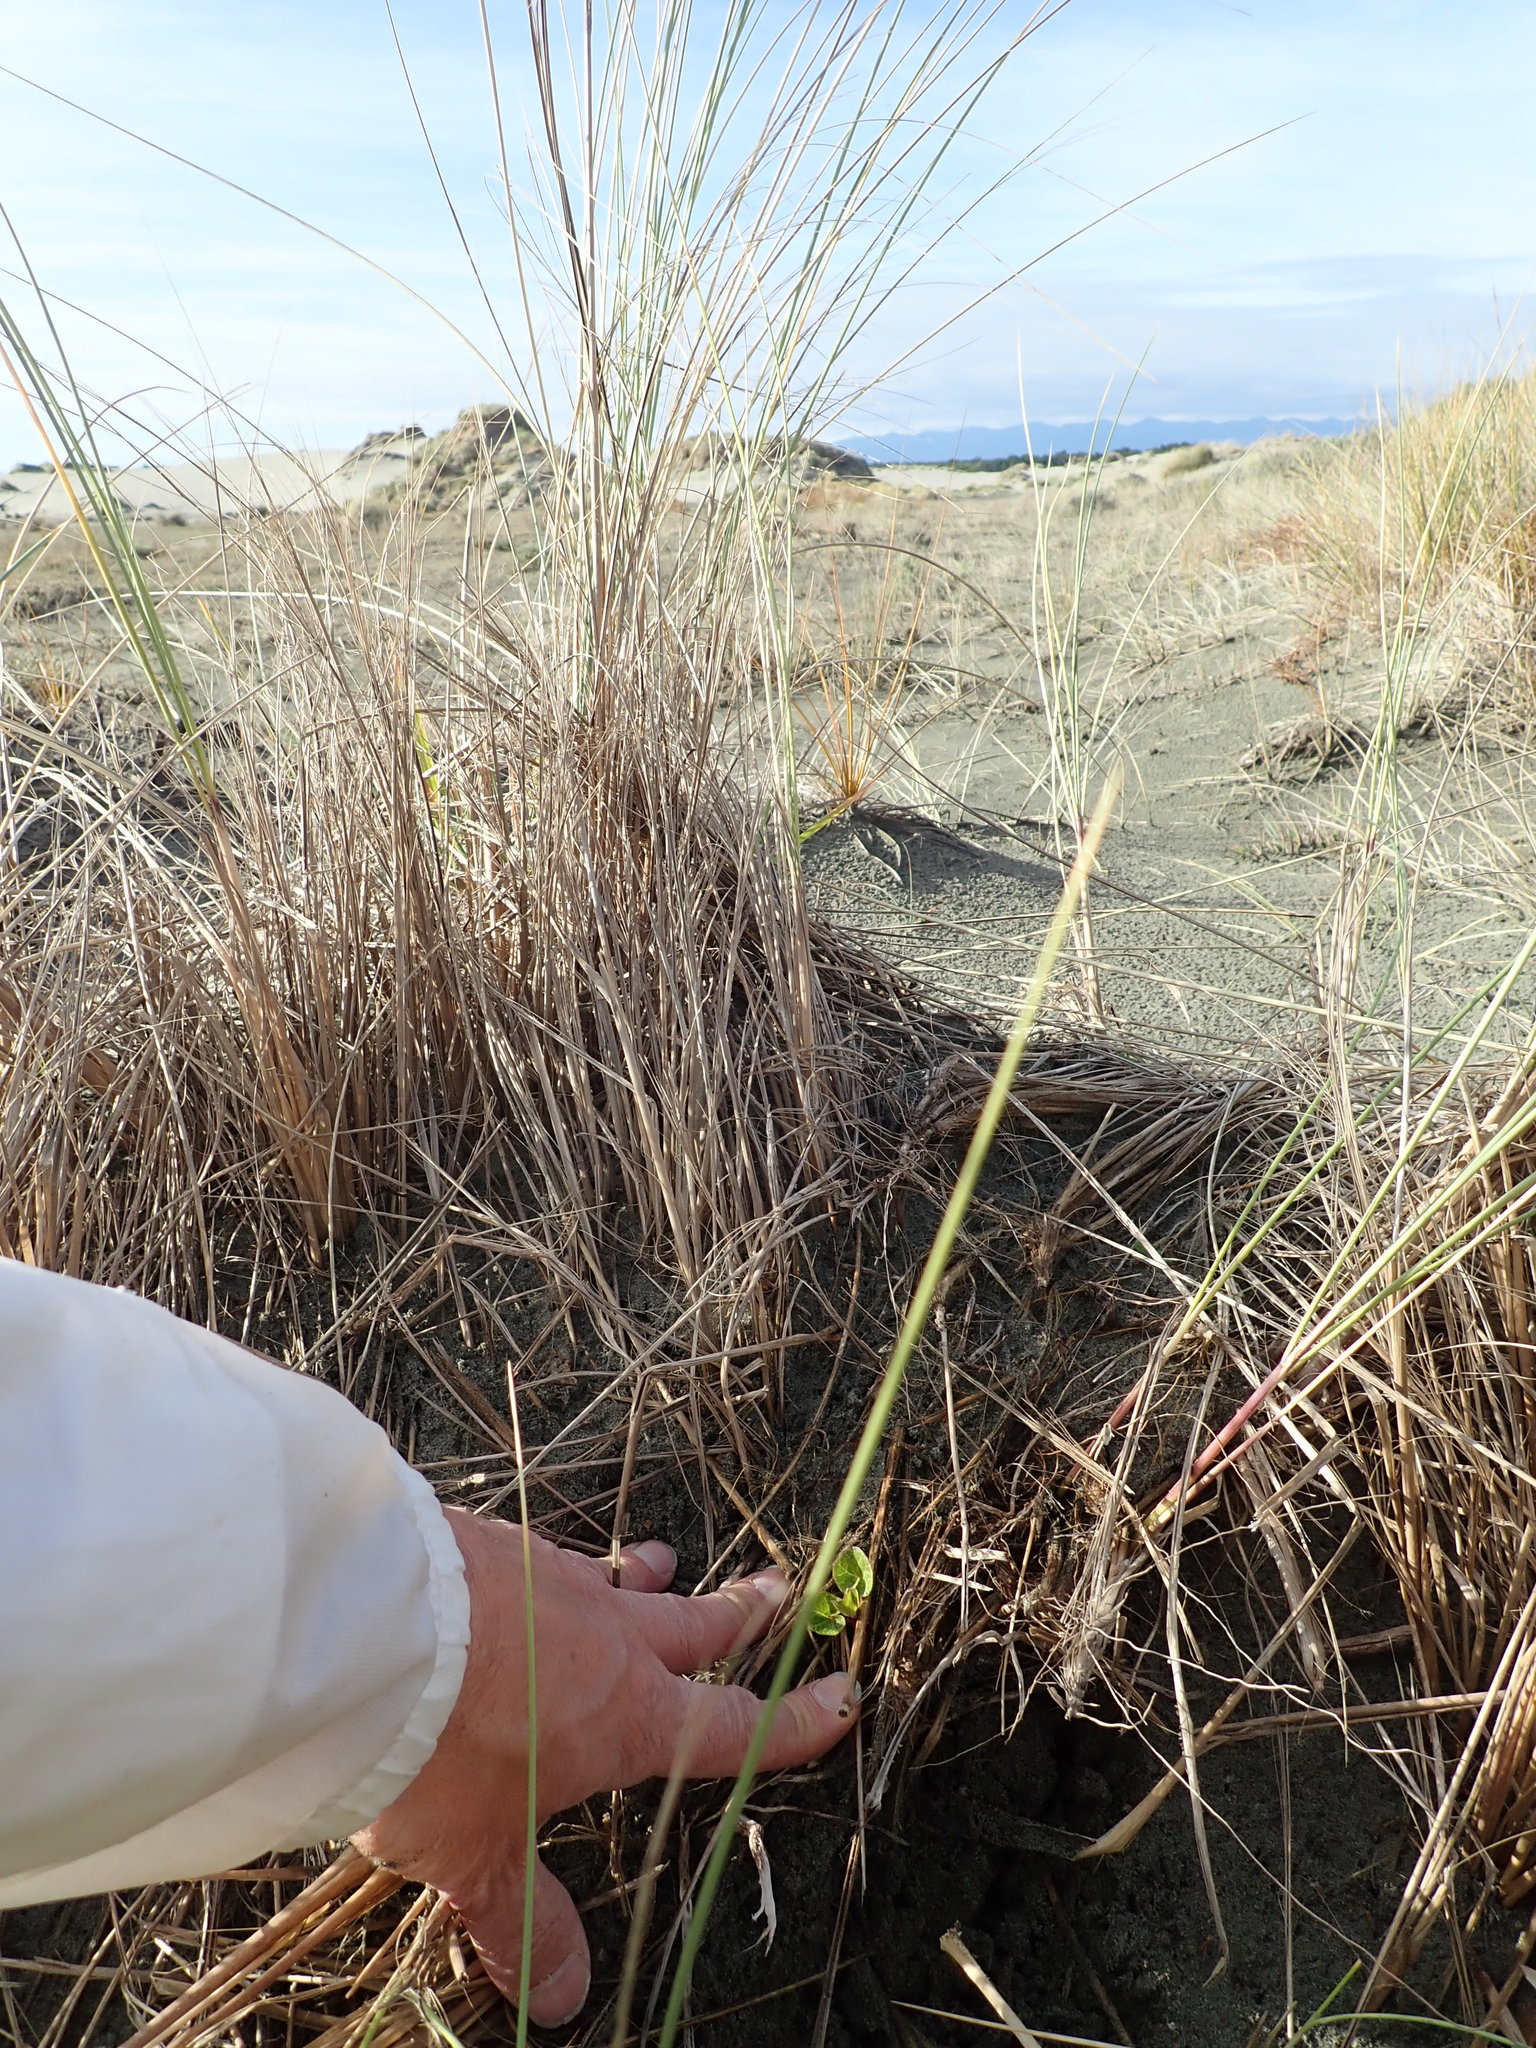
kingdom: Plantae
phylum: Tracheophyta
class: Magnoliopsida
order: Solanales
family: Convolvulaceae
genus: Calystegia
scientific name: Calystegia soldanella
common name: Sea bindweed
